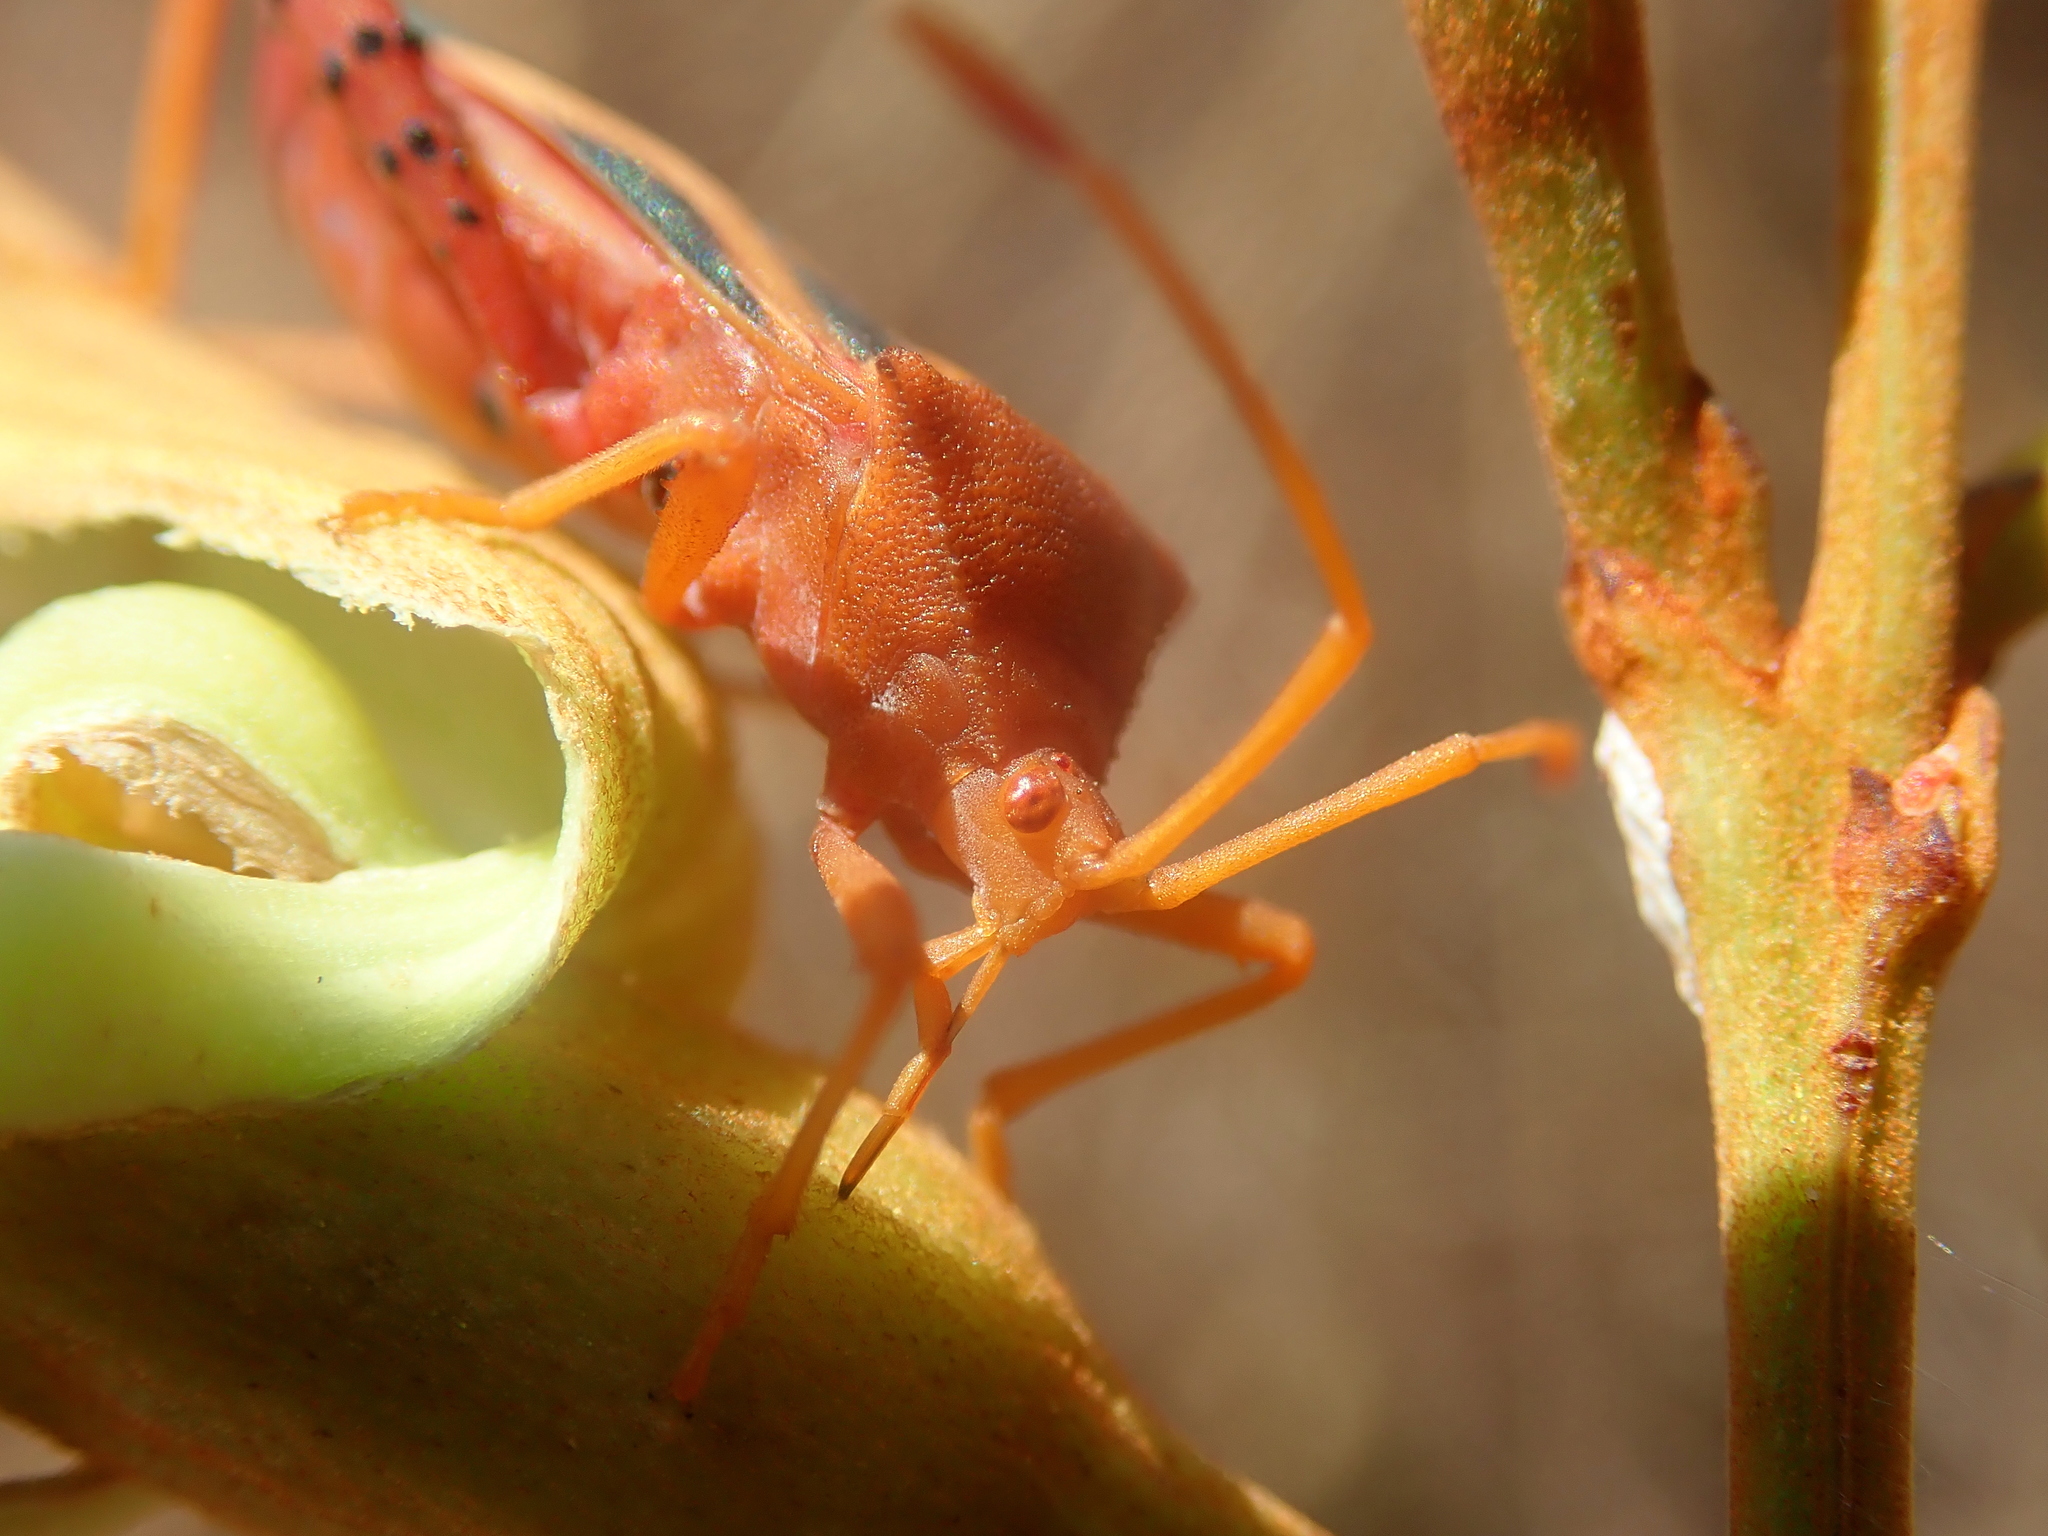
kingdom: Animalia
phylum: Arthropoda
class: Insecta
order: Hemiptera
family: Coreidae
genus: Crinocerus
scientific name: Crinocerus sanctus
